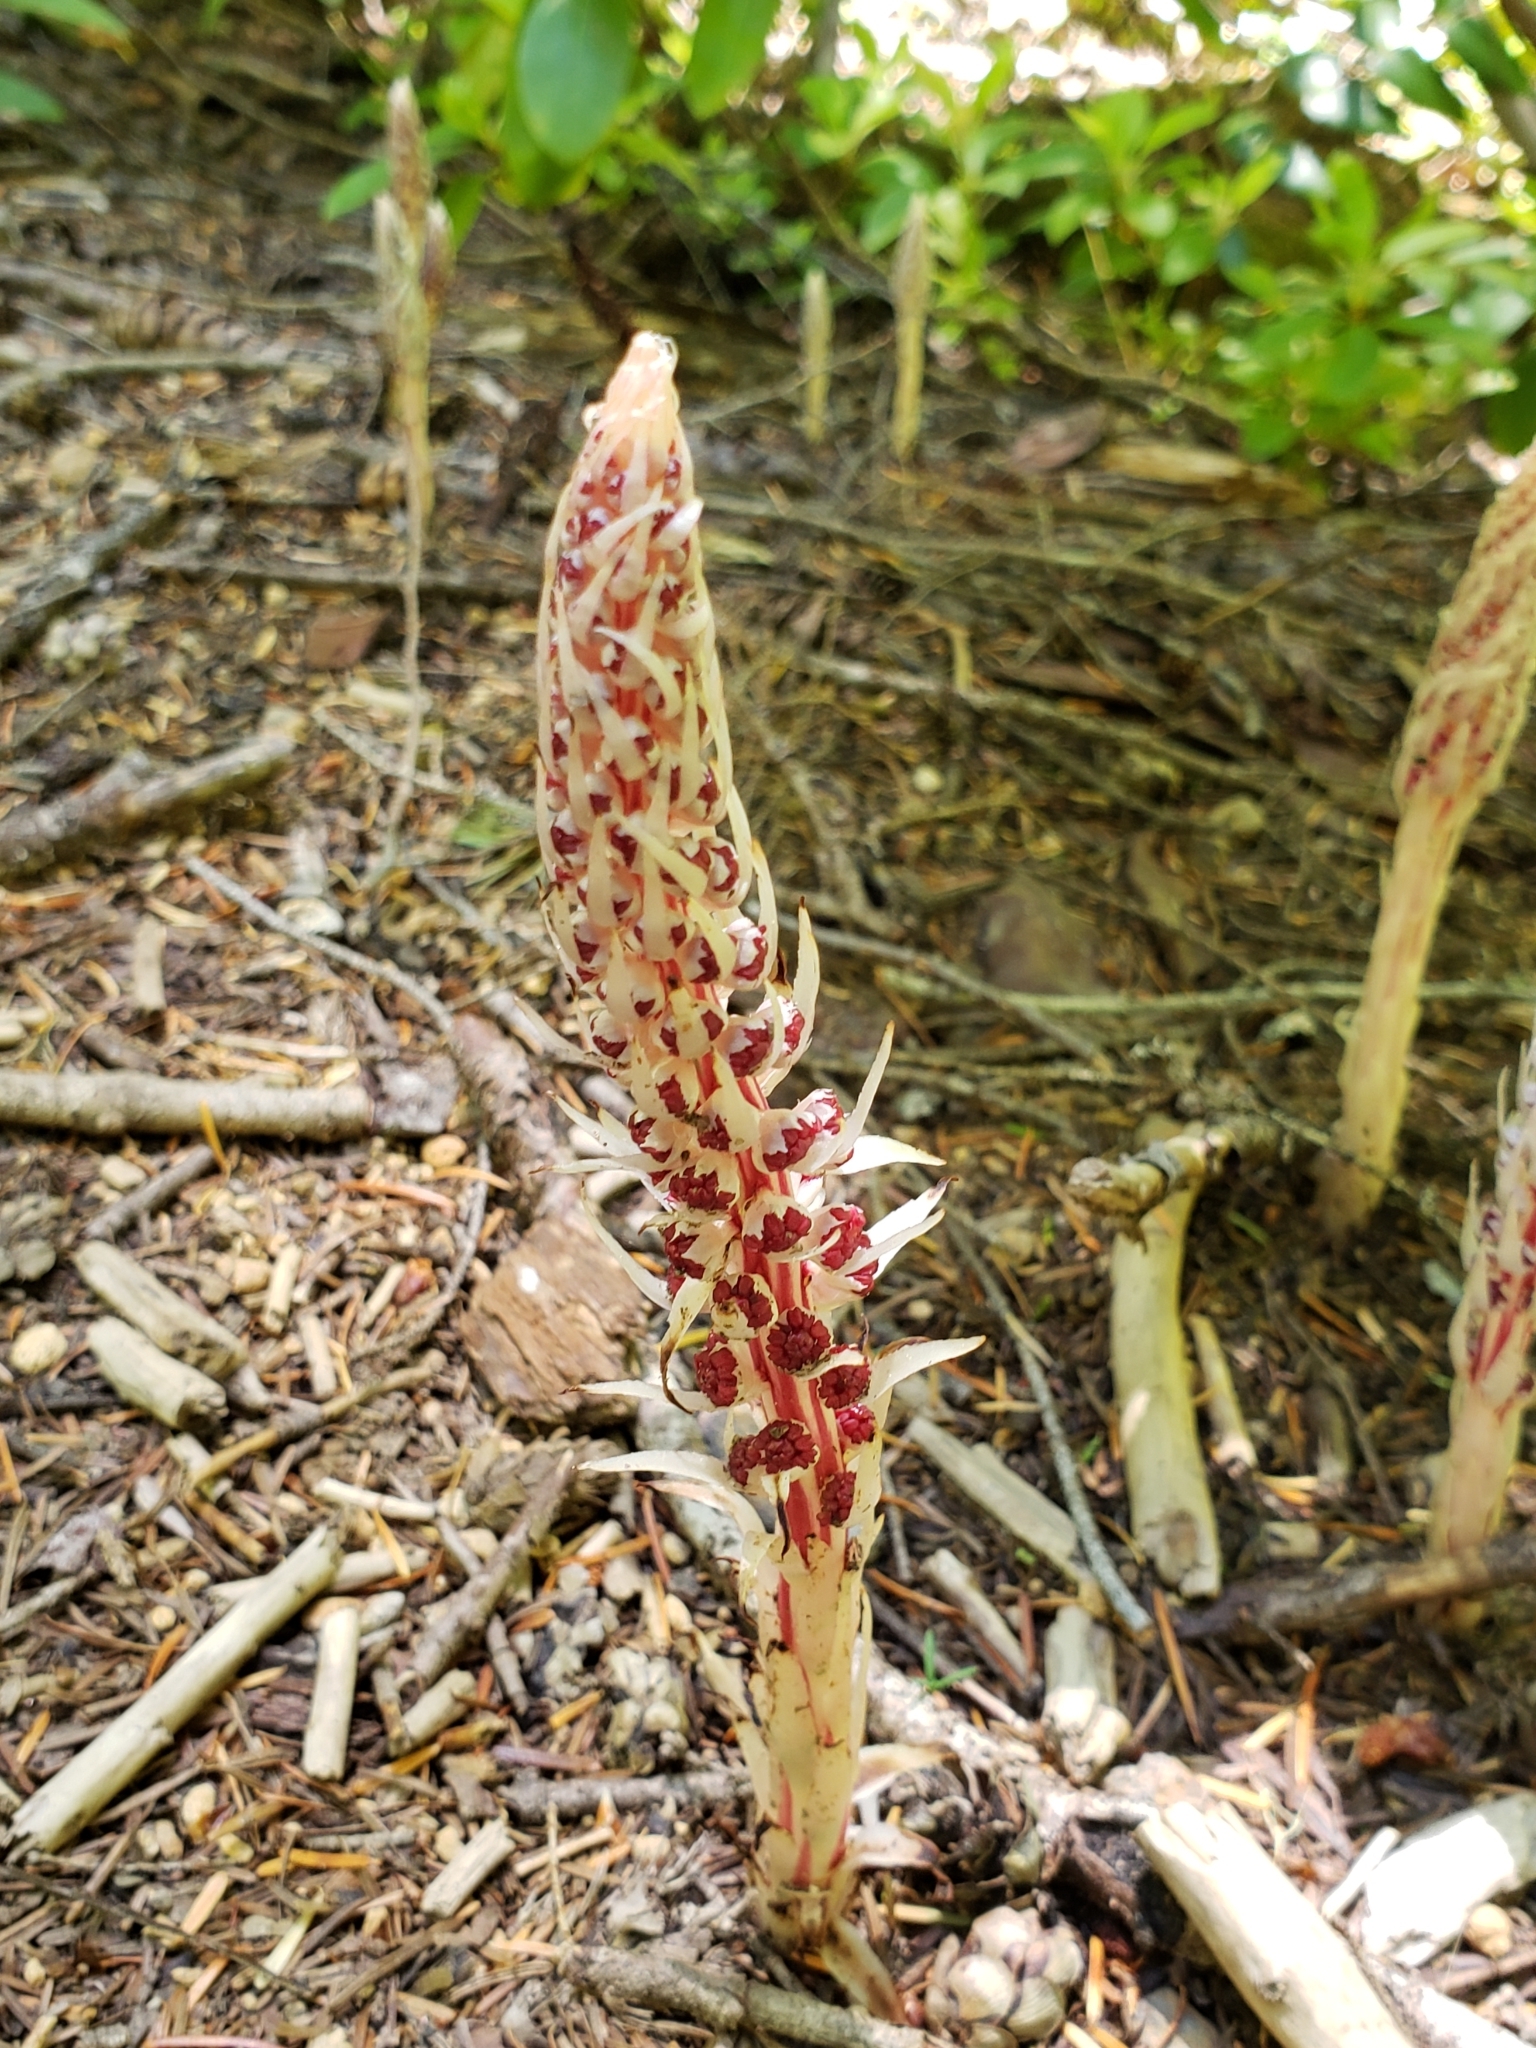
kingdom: Plantae
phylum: Tracheophyta
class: Magnoliopsida
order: Ericales
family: Ericaceae
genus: Allotropa
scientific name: Allotropa virgata
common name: Candy-striped allotropa
